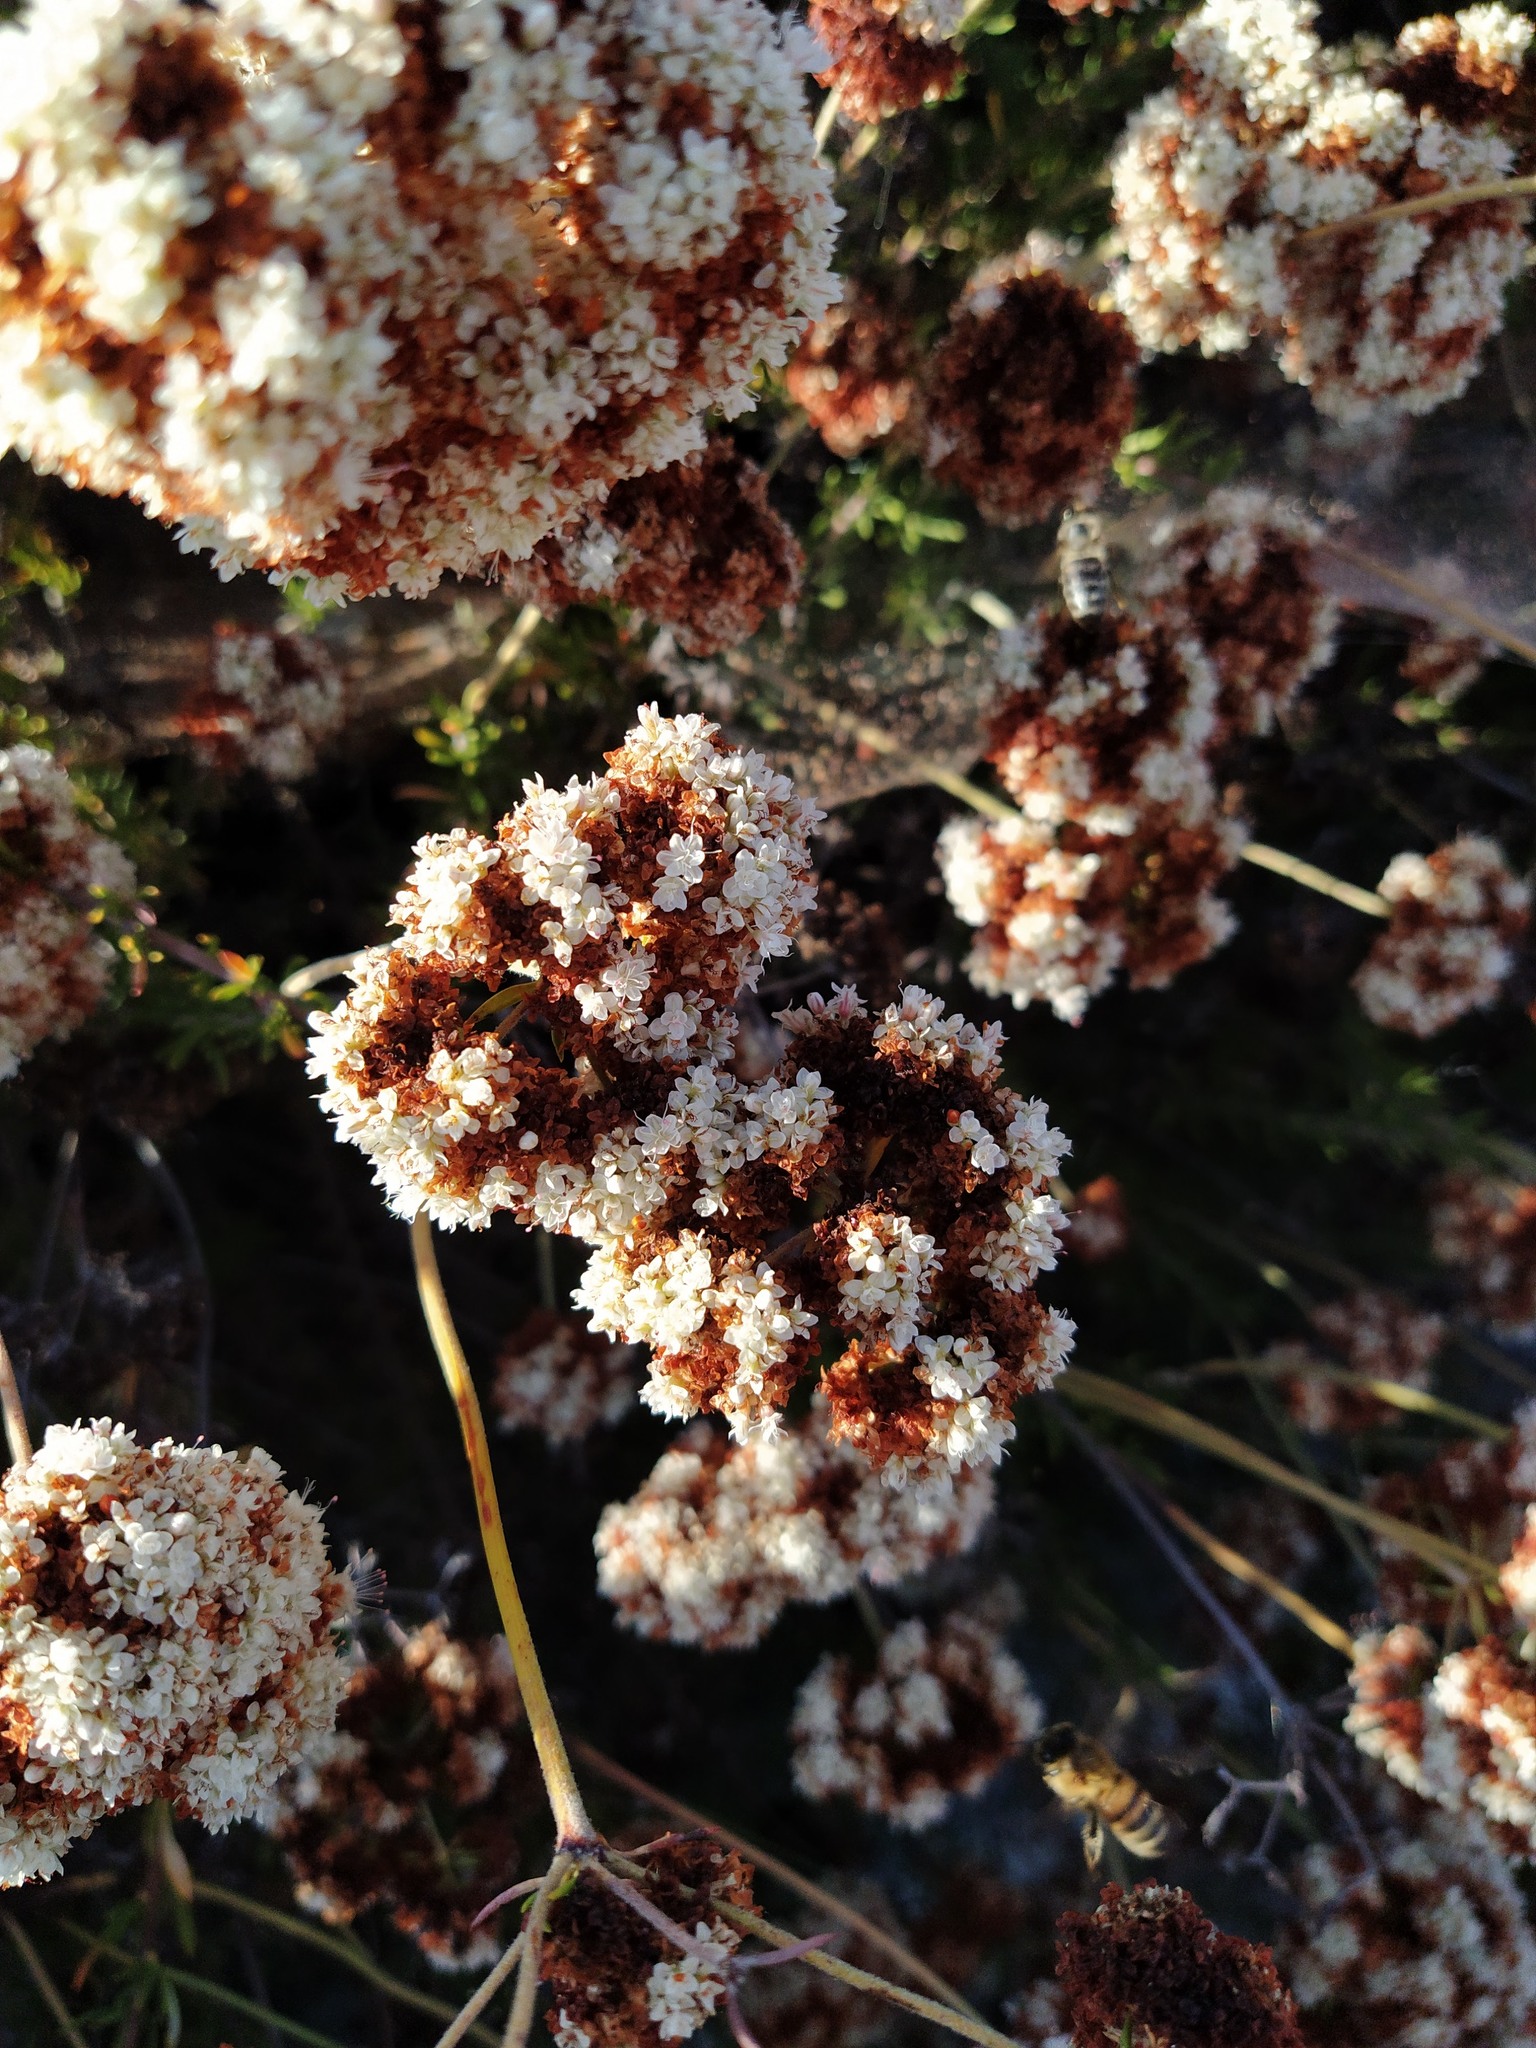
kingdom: Plantae
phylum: Tracheophyta
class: Magnoliopsida
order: Caryophyllales
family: Polygonaceae
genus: Eriogonum
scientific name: Eriogonum fasciculatum
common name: California wild buckwheat
